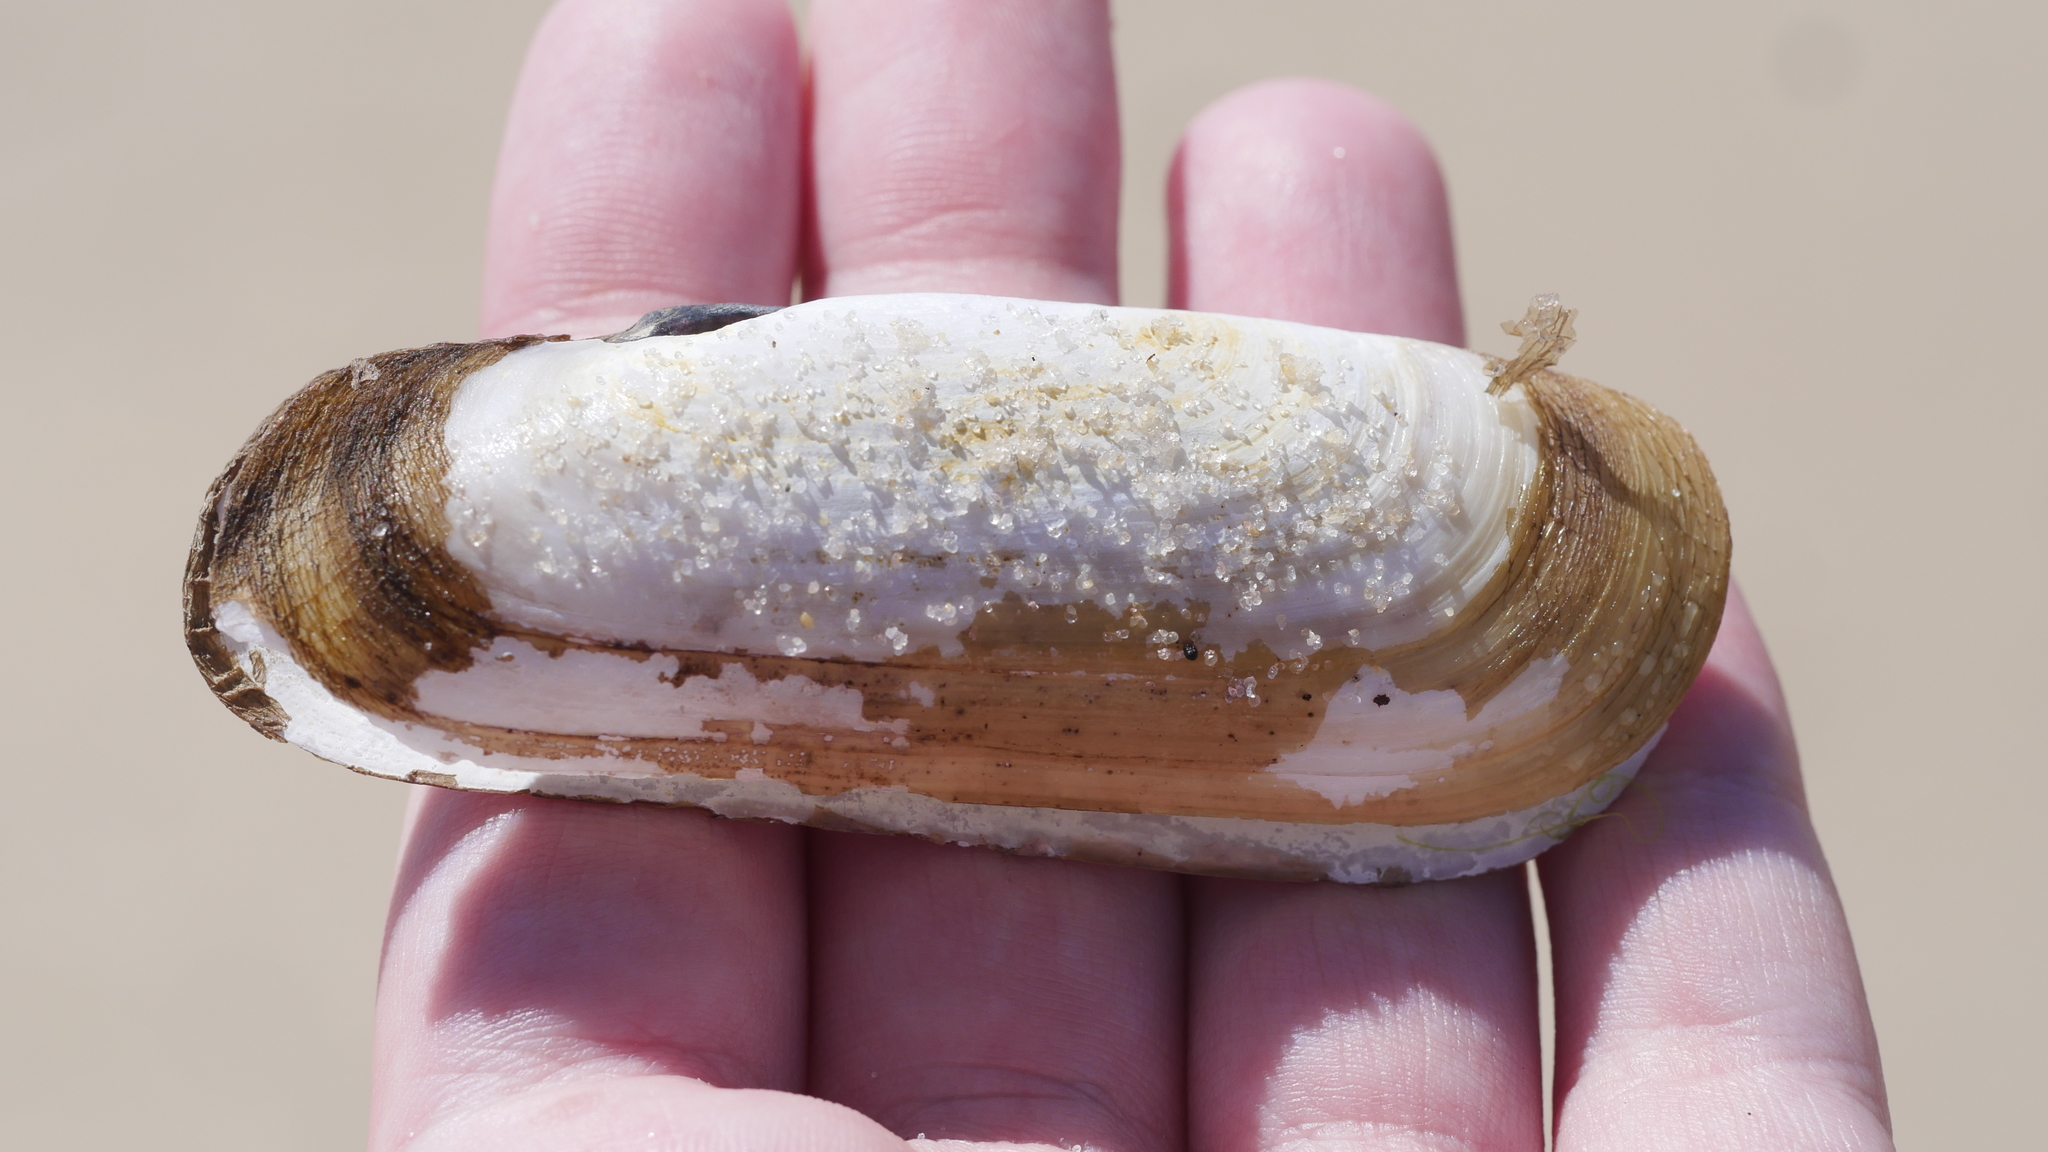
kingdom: Animalia
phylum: Mollusca
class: Bivalvia
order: Cardiida
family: Solecurtidae
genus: Tagelus
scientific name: Tagelus plebeius
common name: Stout tagelus
